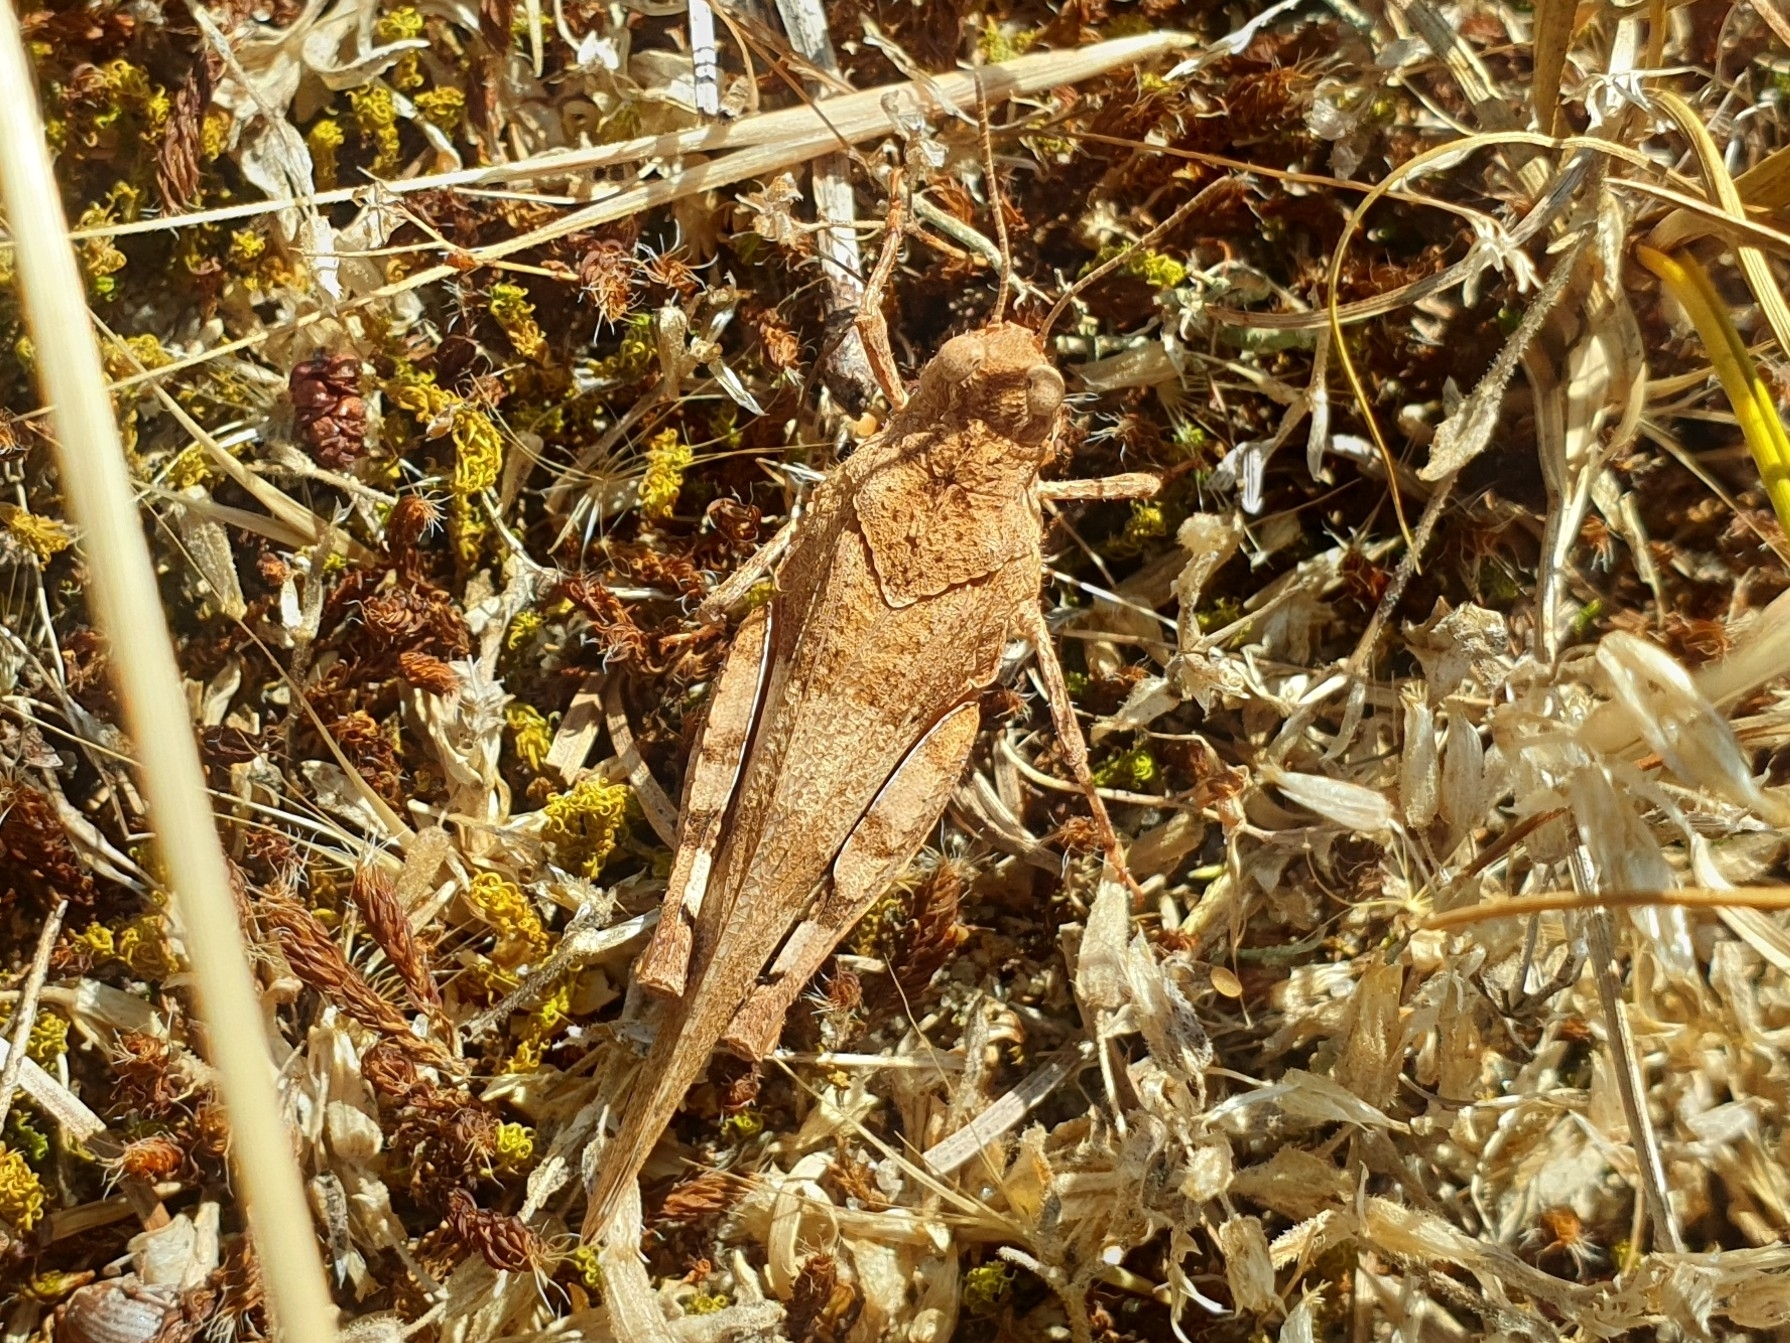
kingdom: Animalia
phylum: Arthropoda
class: Insecta
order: Orthoptera
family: Acrididae
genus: Oedipoda
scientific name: Oedipoda caerulescens
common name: Blue-winged grasshopper
